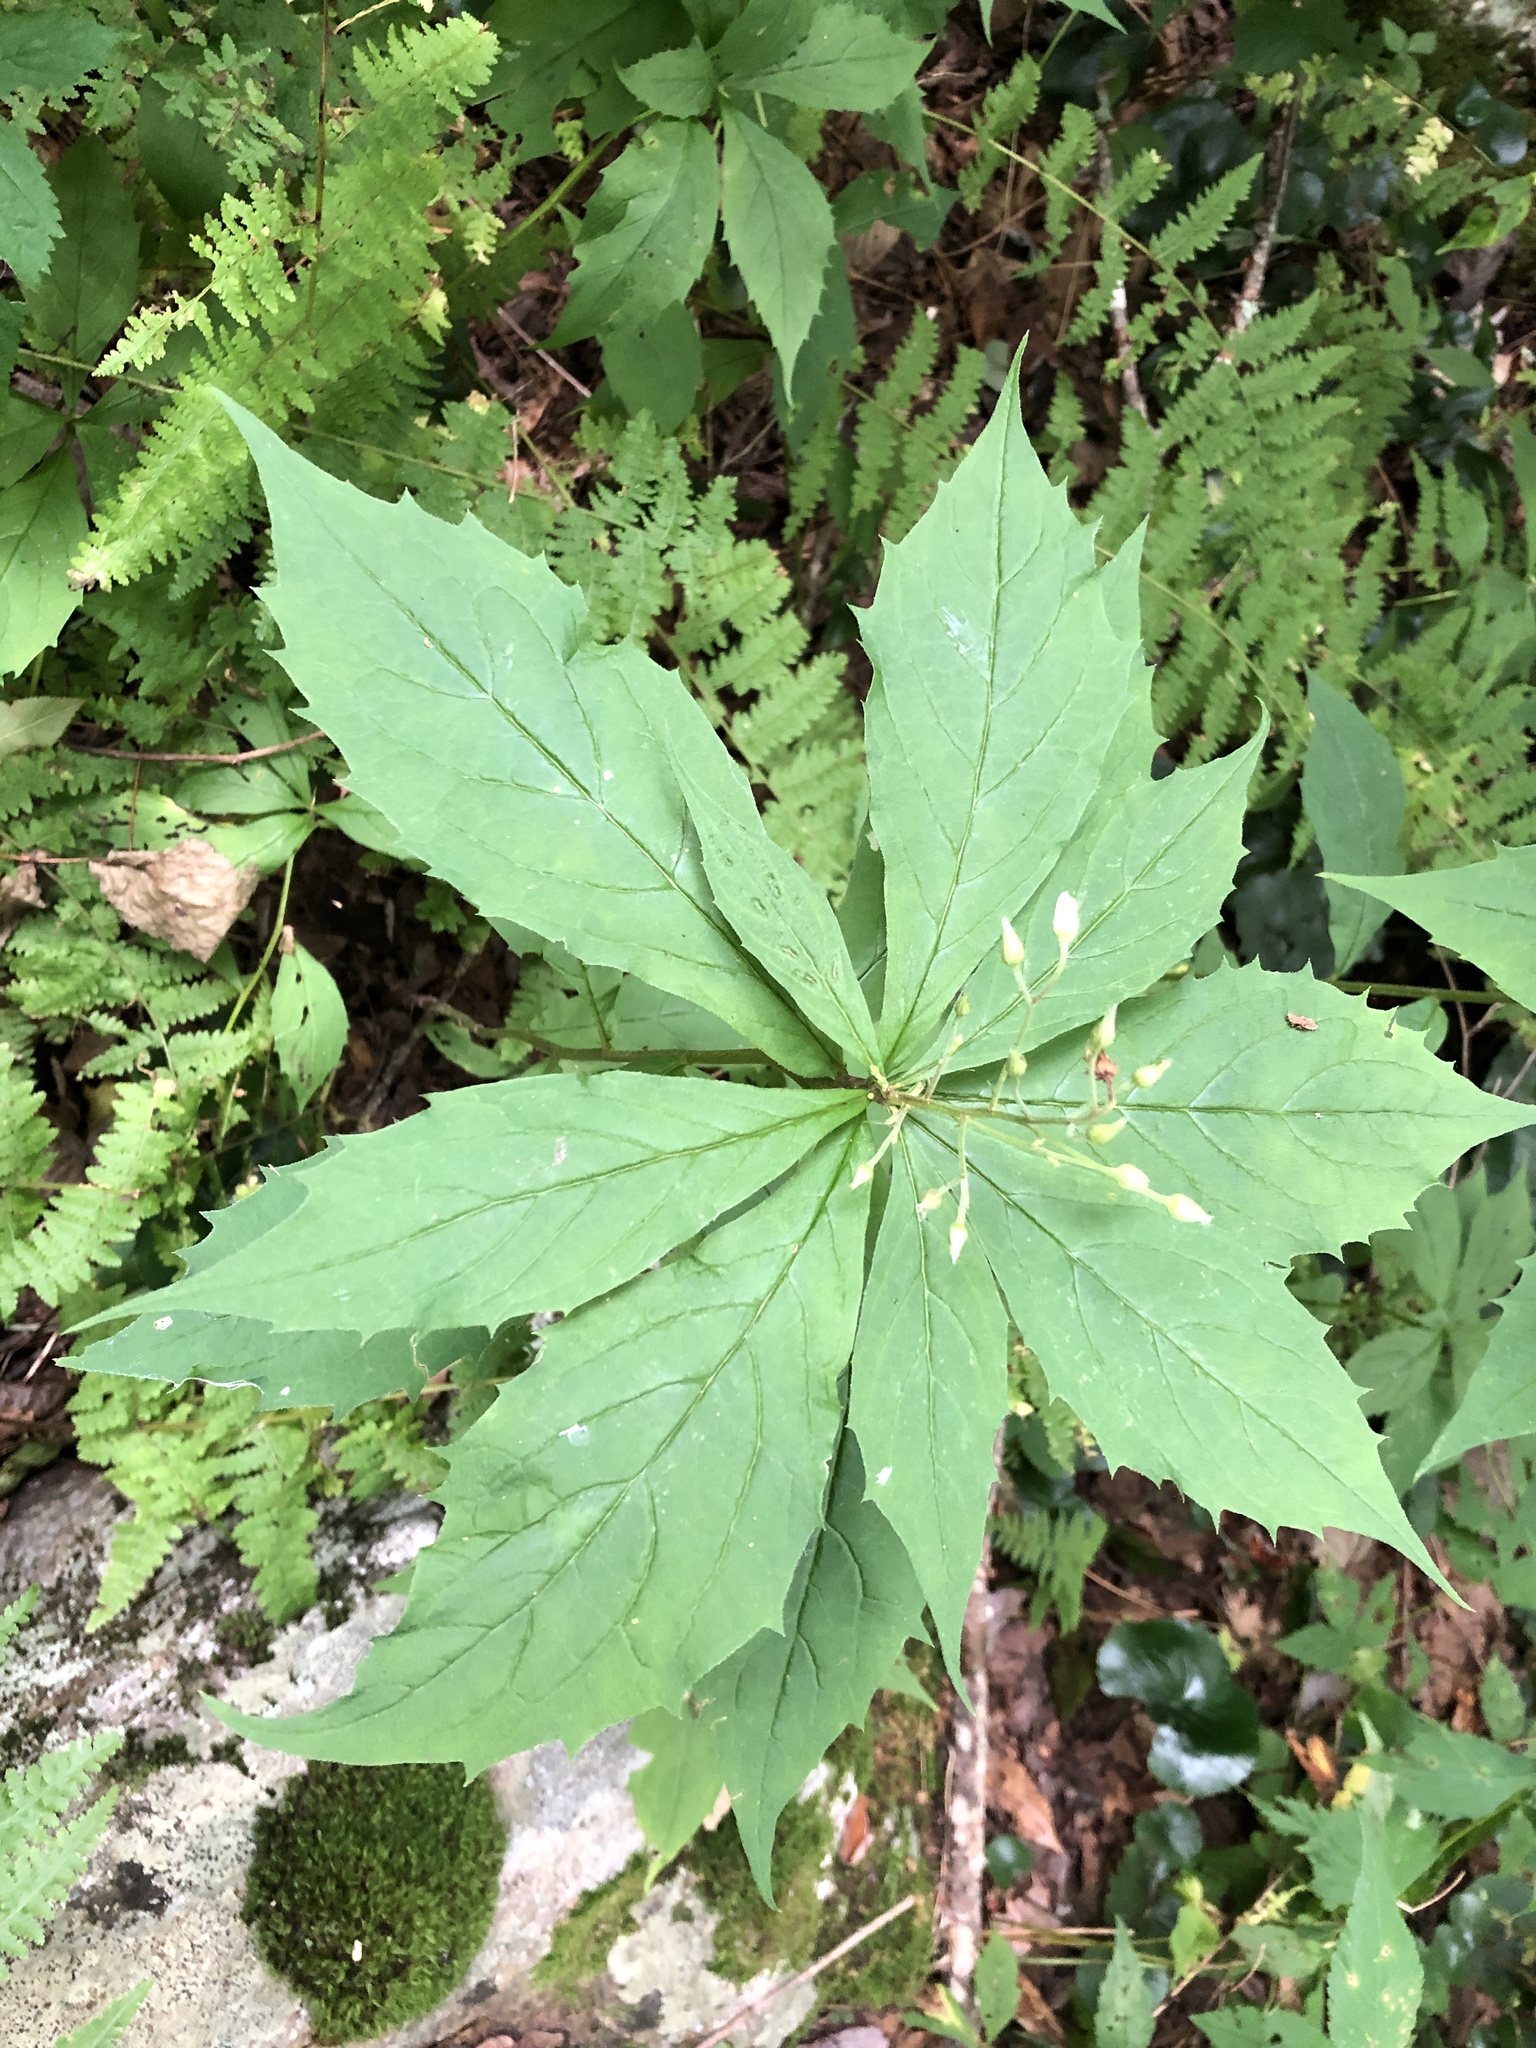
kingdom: Plantae
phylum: Tracheophyta
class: Magnoliopsida
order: Asterales
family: Asteraceae
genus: Oclemena
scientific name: Oclemena acuminata
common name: Mountain aster
